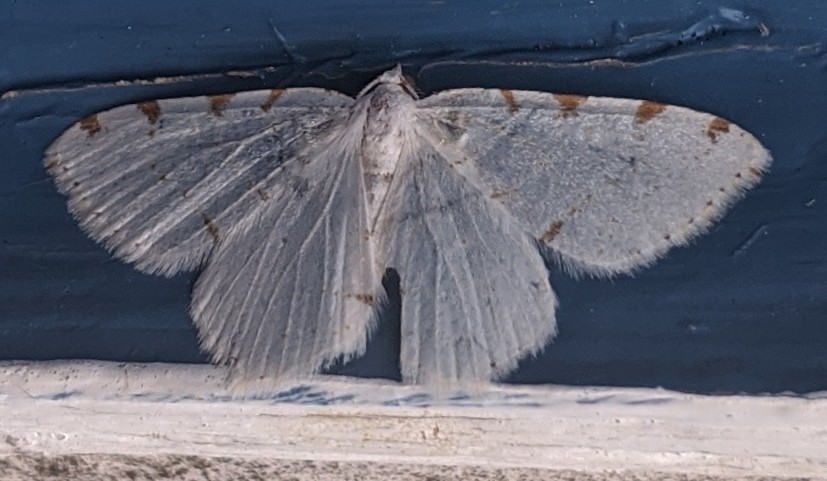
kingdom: Animalia
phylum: Arthropoda
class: Insecta
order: Lepidoptera
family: Geometridae
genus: Macaria
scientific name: Macaria pustularia
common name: Lesser maple spanworm moth
